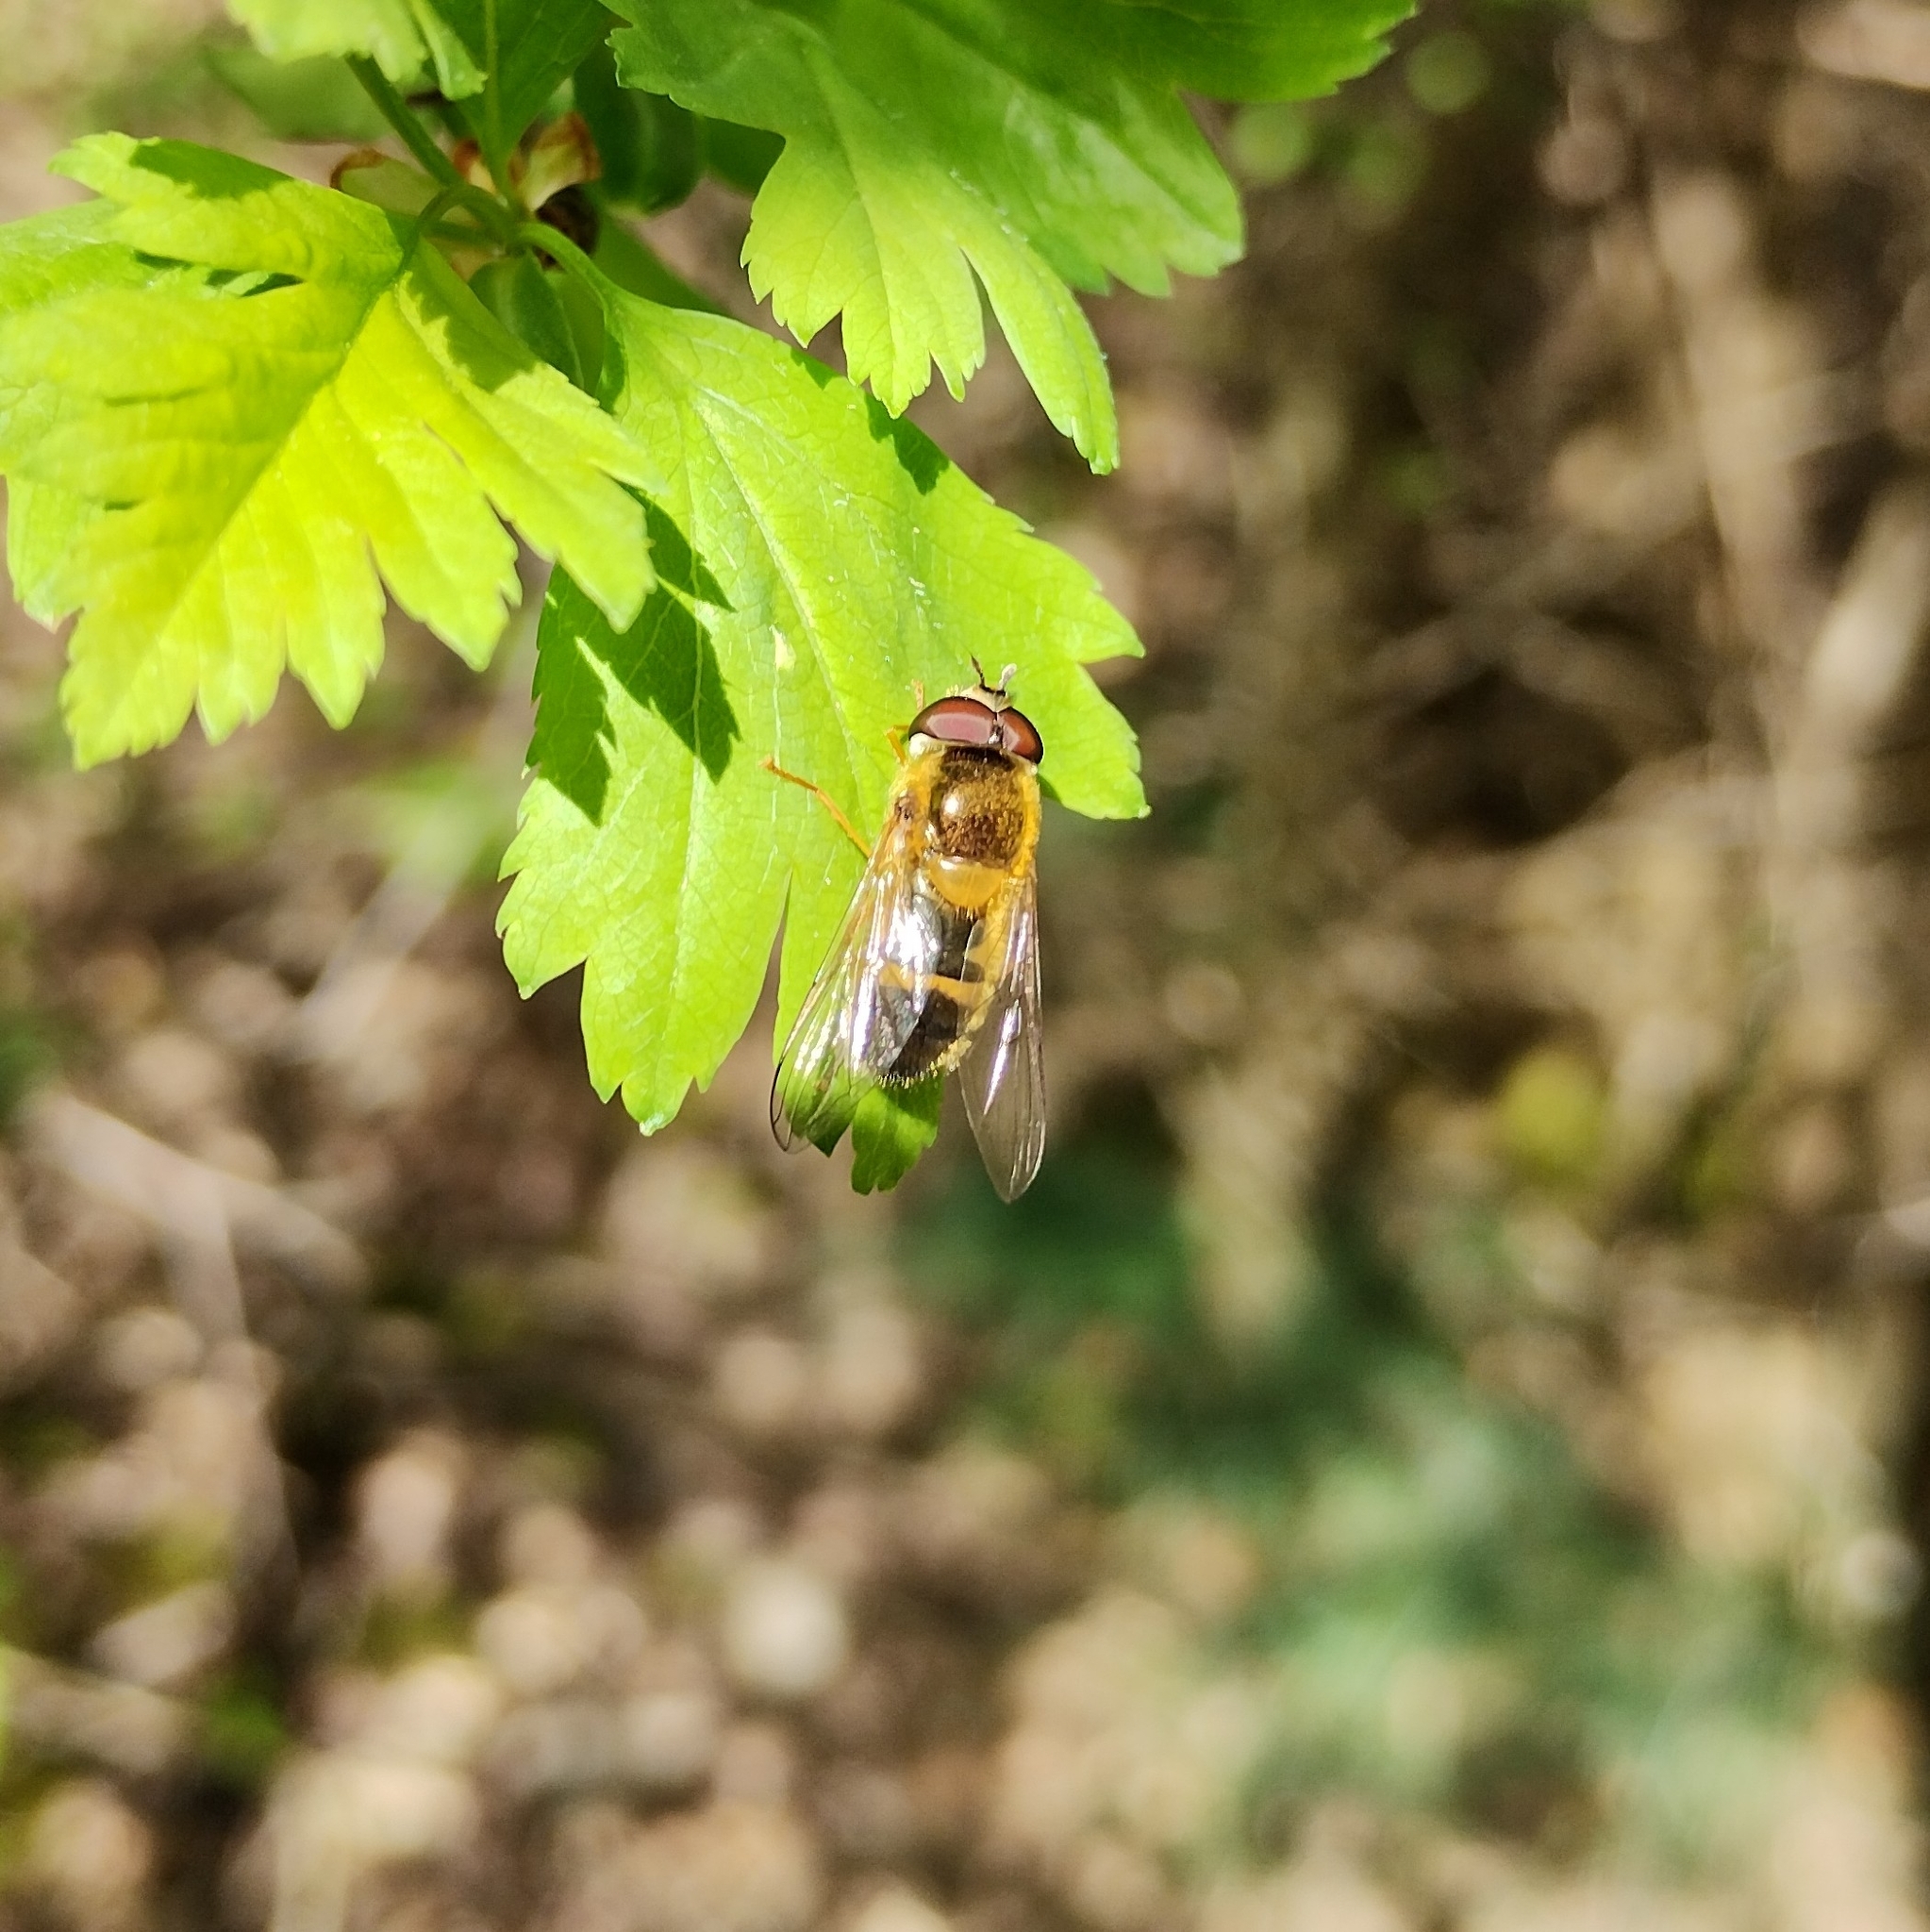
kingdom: Animalia
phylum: Arthropoda
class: Insecta
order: Diptera
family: Syrphidae
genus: Epistrophe
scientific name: Epistrophe eligans
